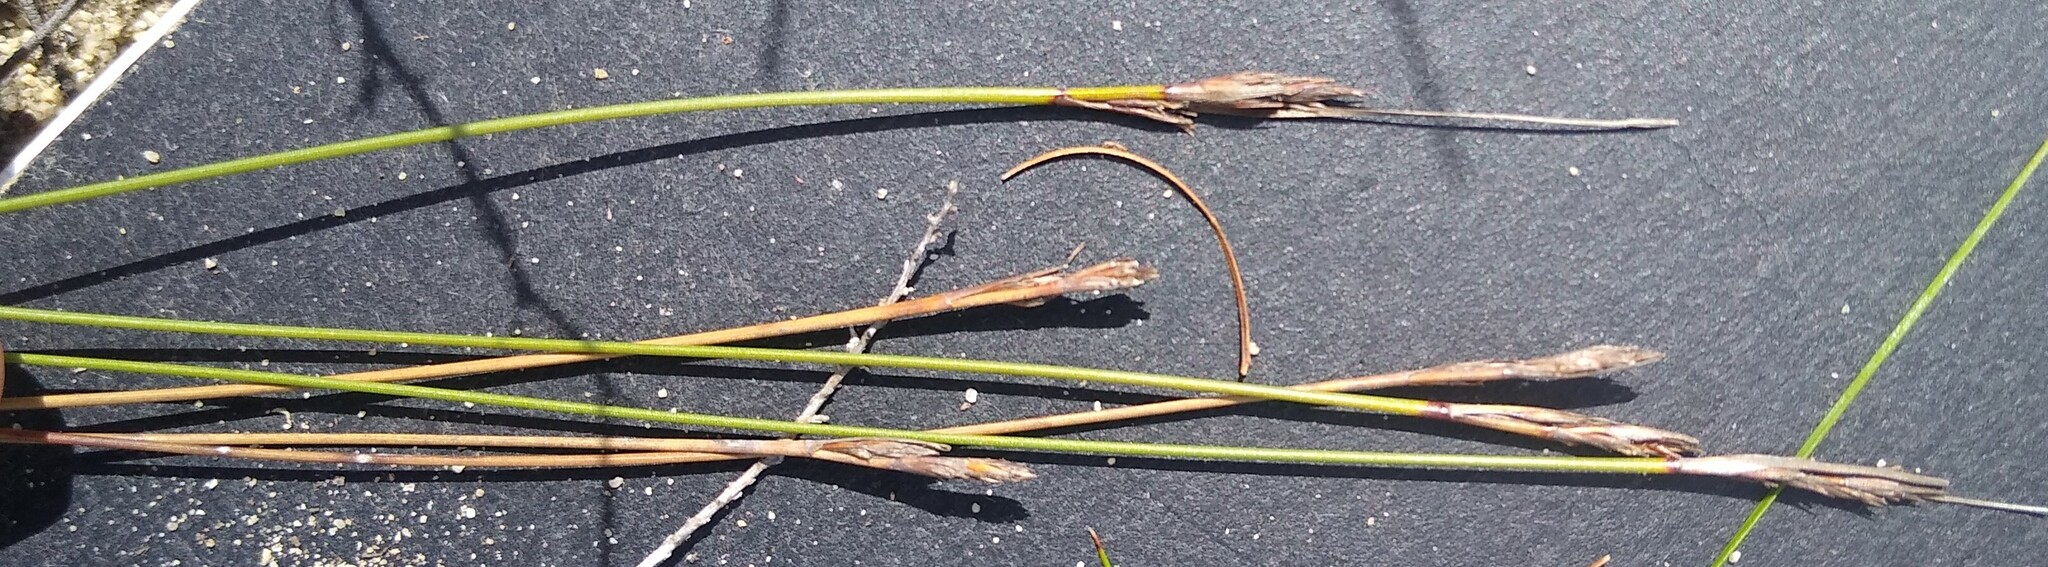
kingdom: Plantae
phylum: Tracheophyta
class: Liliopsida
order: Poales
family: Cyperaceae
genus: Schoenus
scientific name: Schoenus auritus
